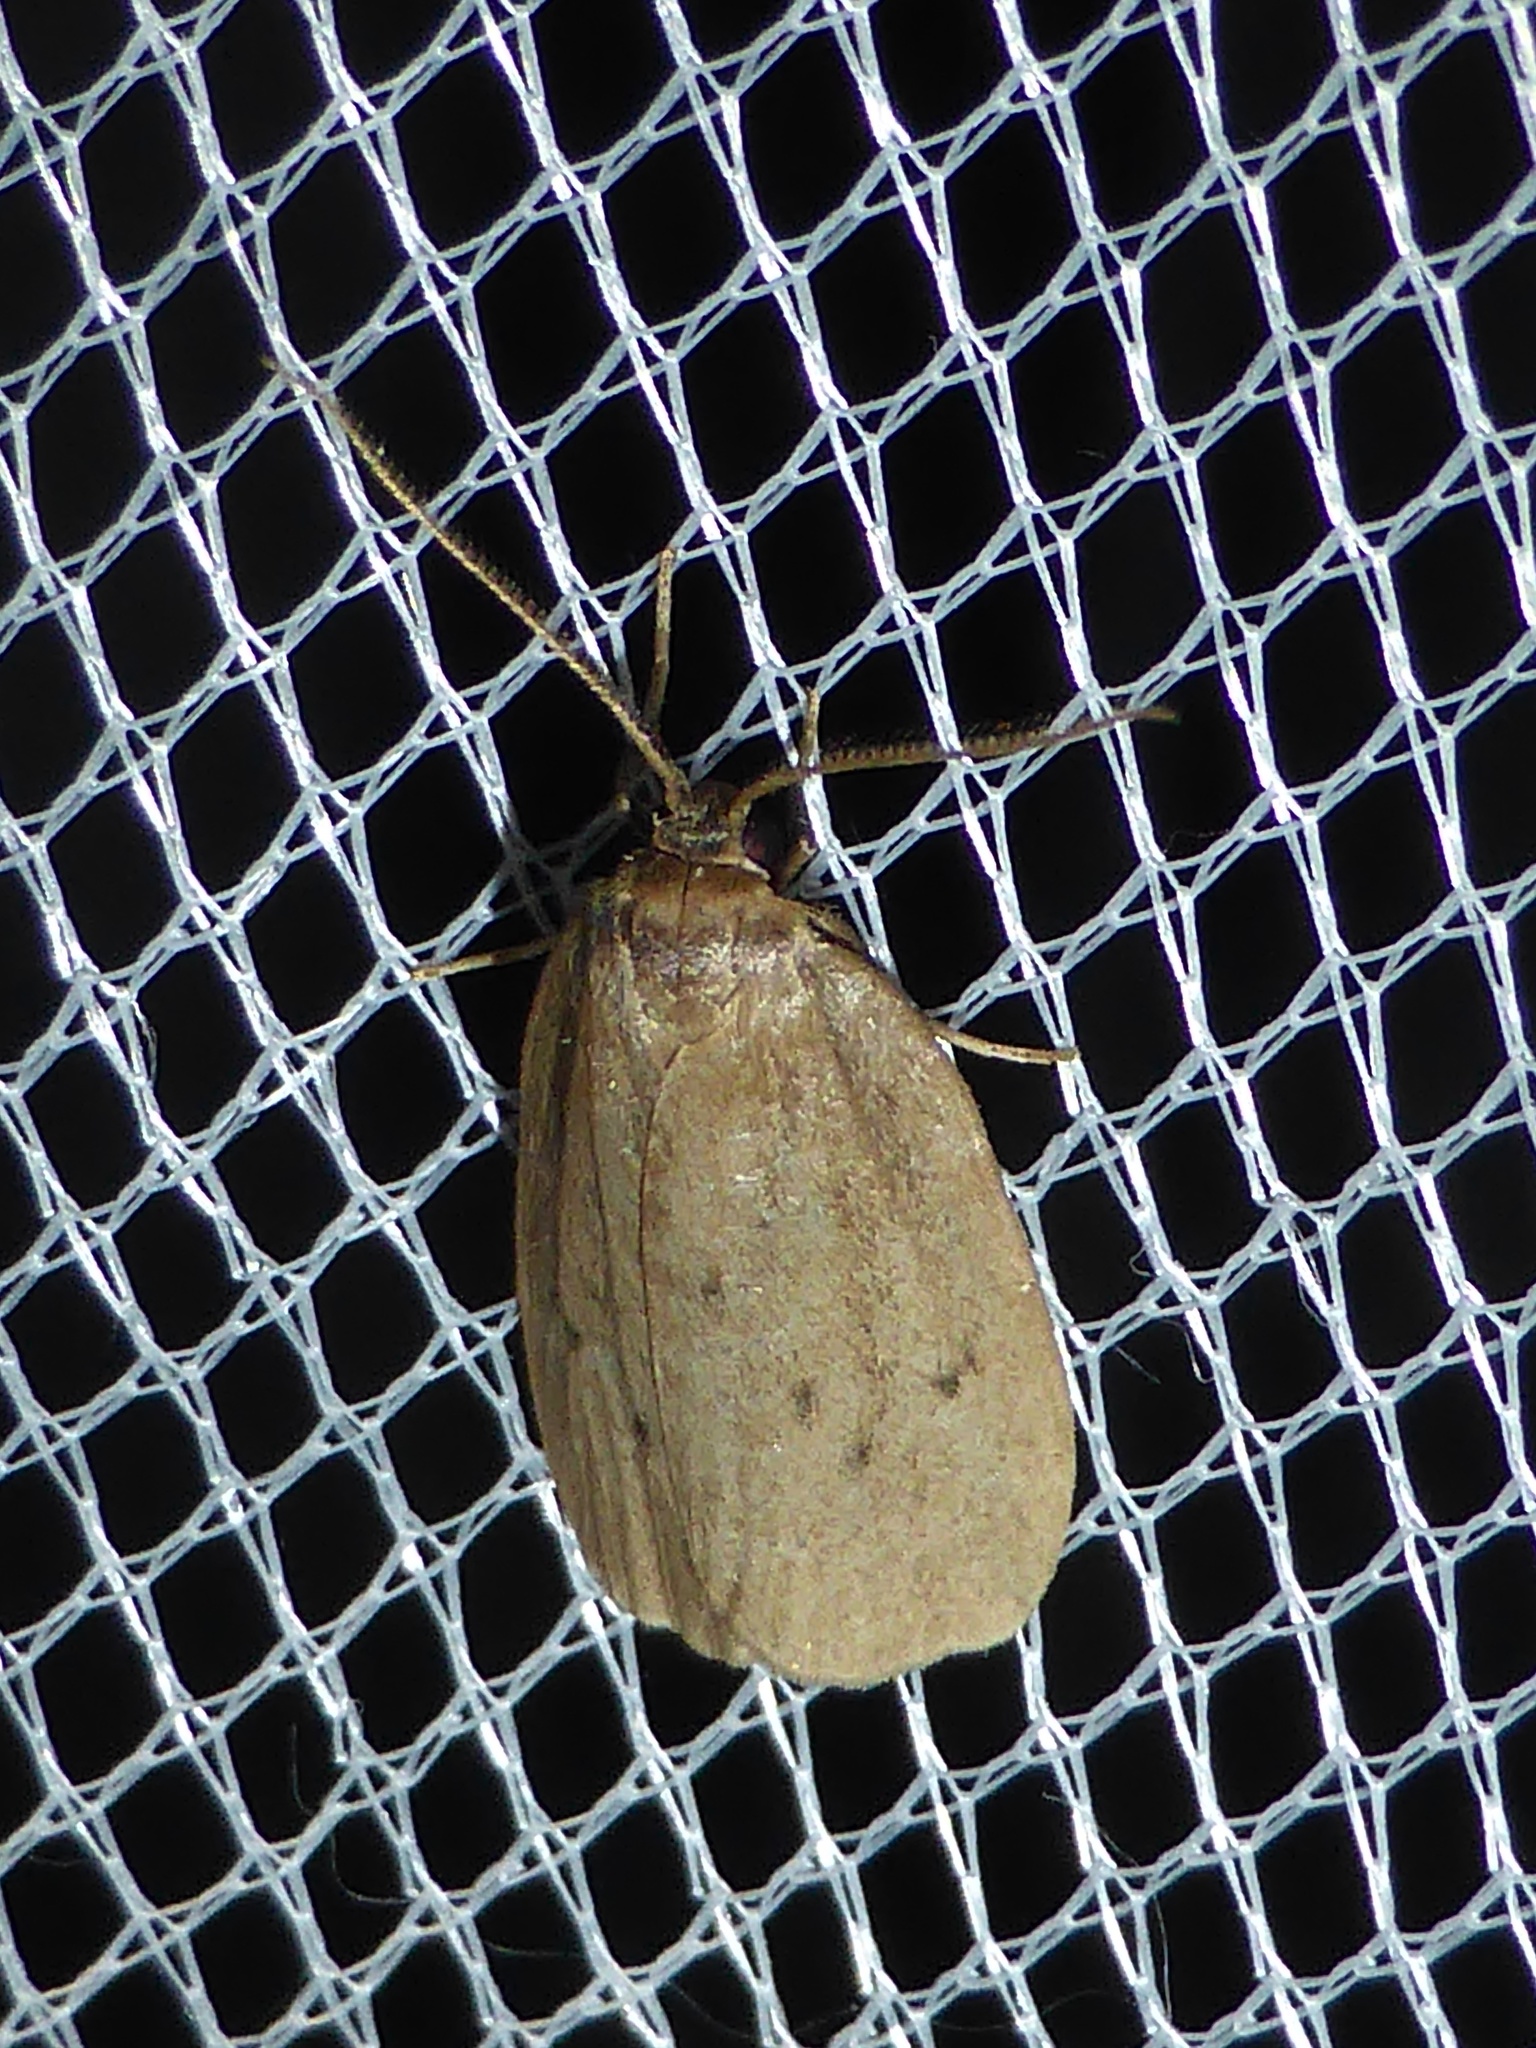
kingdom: Animalia
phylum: Arthropoda
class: Insecta
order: Lepidoptera
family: Erebidae
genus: Pelosia
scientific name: Pelosia obtusa
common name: Small dotted footman
